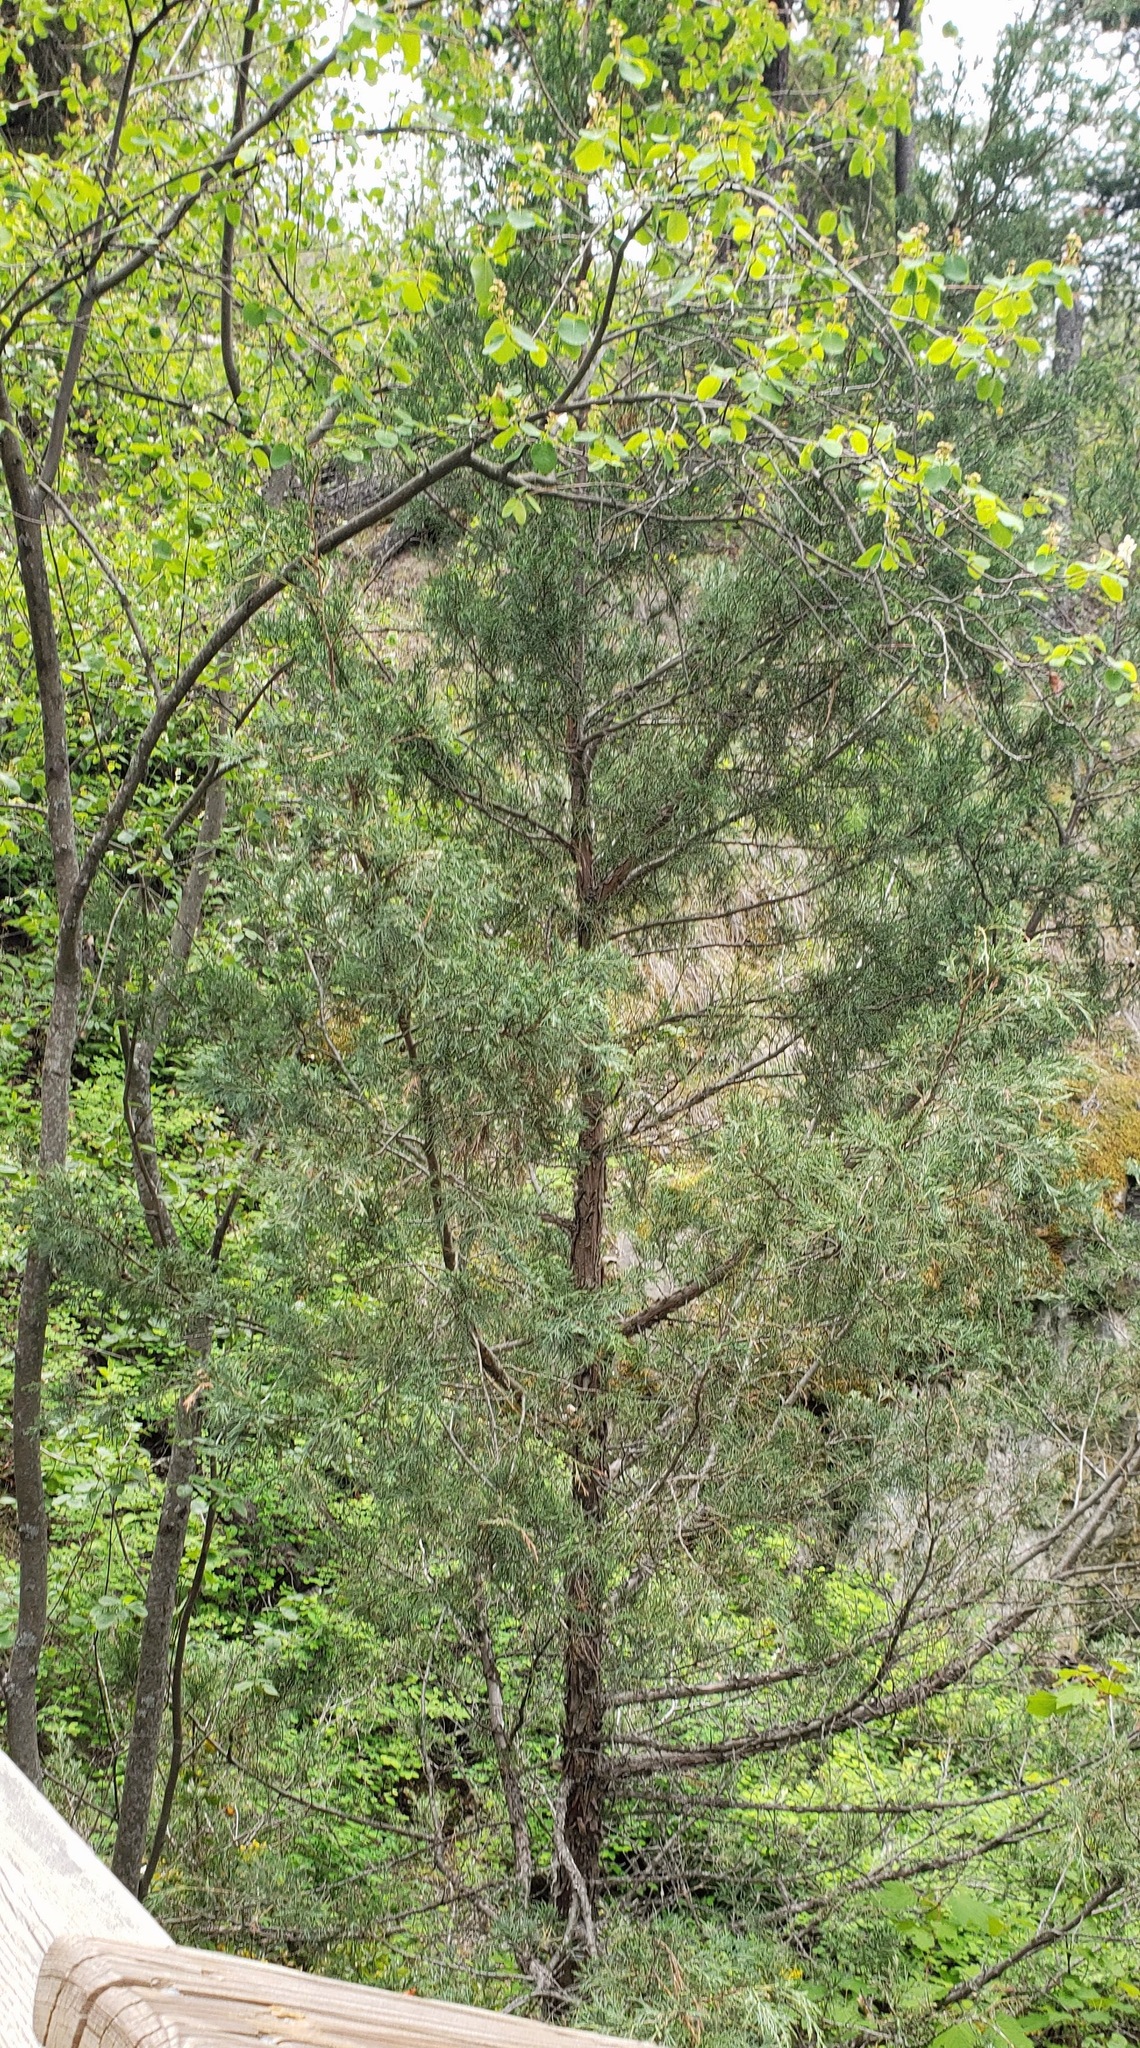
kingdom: Plantae
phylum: Tracheophyta
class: Pinopsida
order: Pinales
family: Cupressaceae
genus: Juniperus
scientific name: Juniperus scopulorum
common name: Rocky mountain juniper
